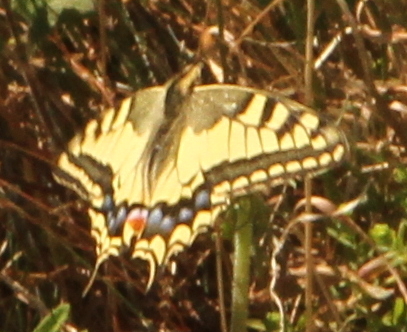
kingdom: Animalia
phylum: Arthropoda
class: Insecta
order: Lepidoptera
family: Papilionidae
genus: Papilio
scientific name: Papilio machaon
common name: Swallowtail
